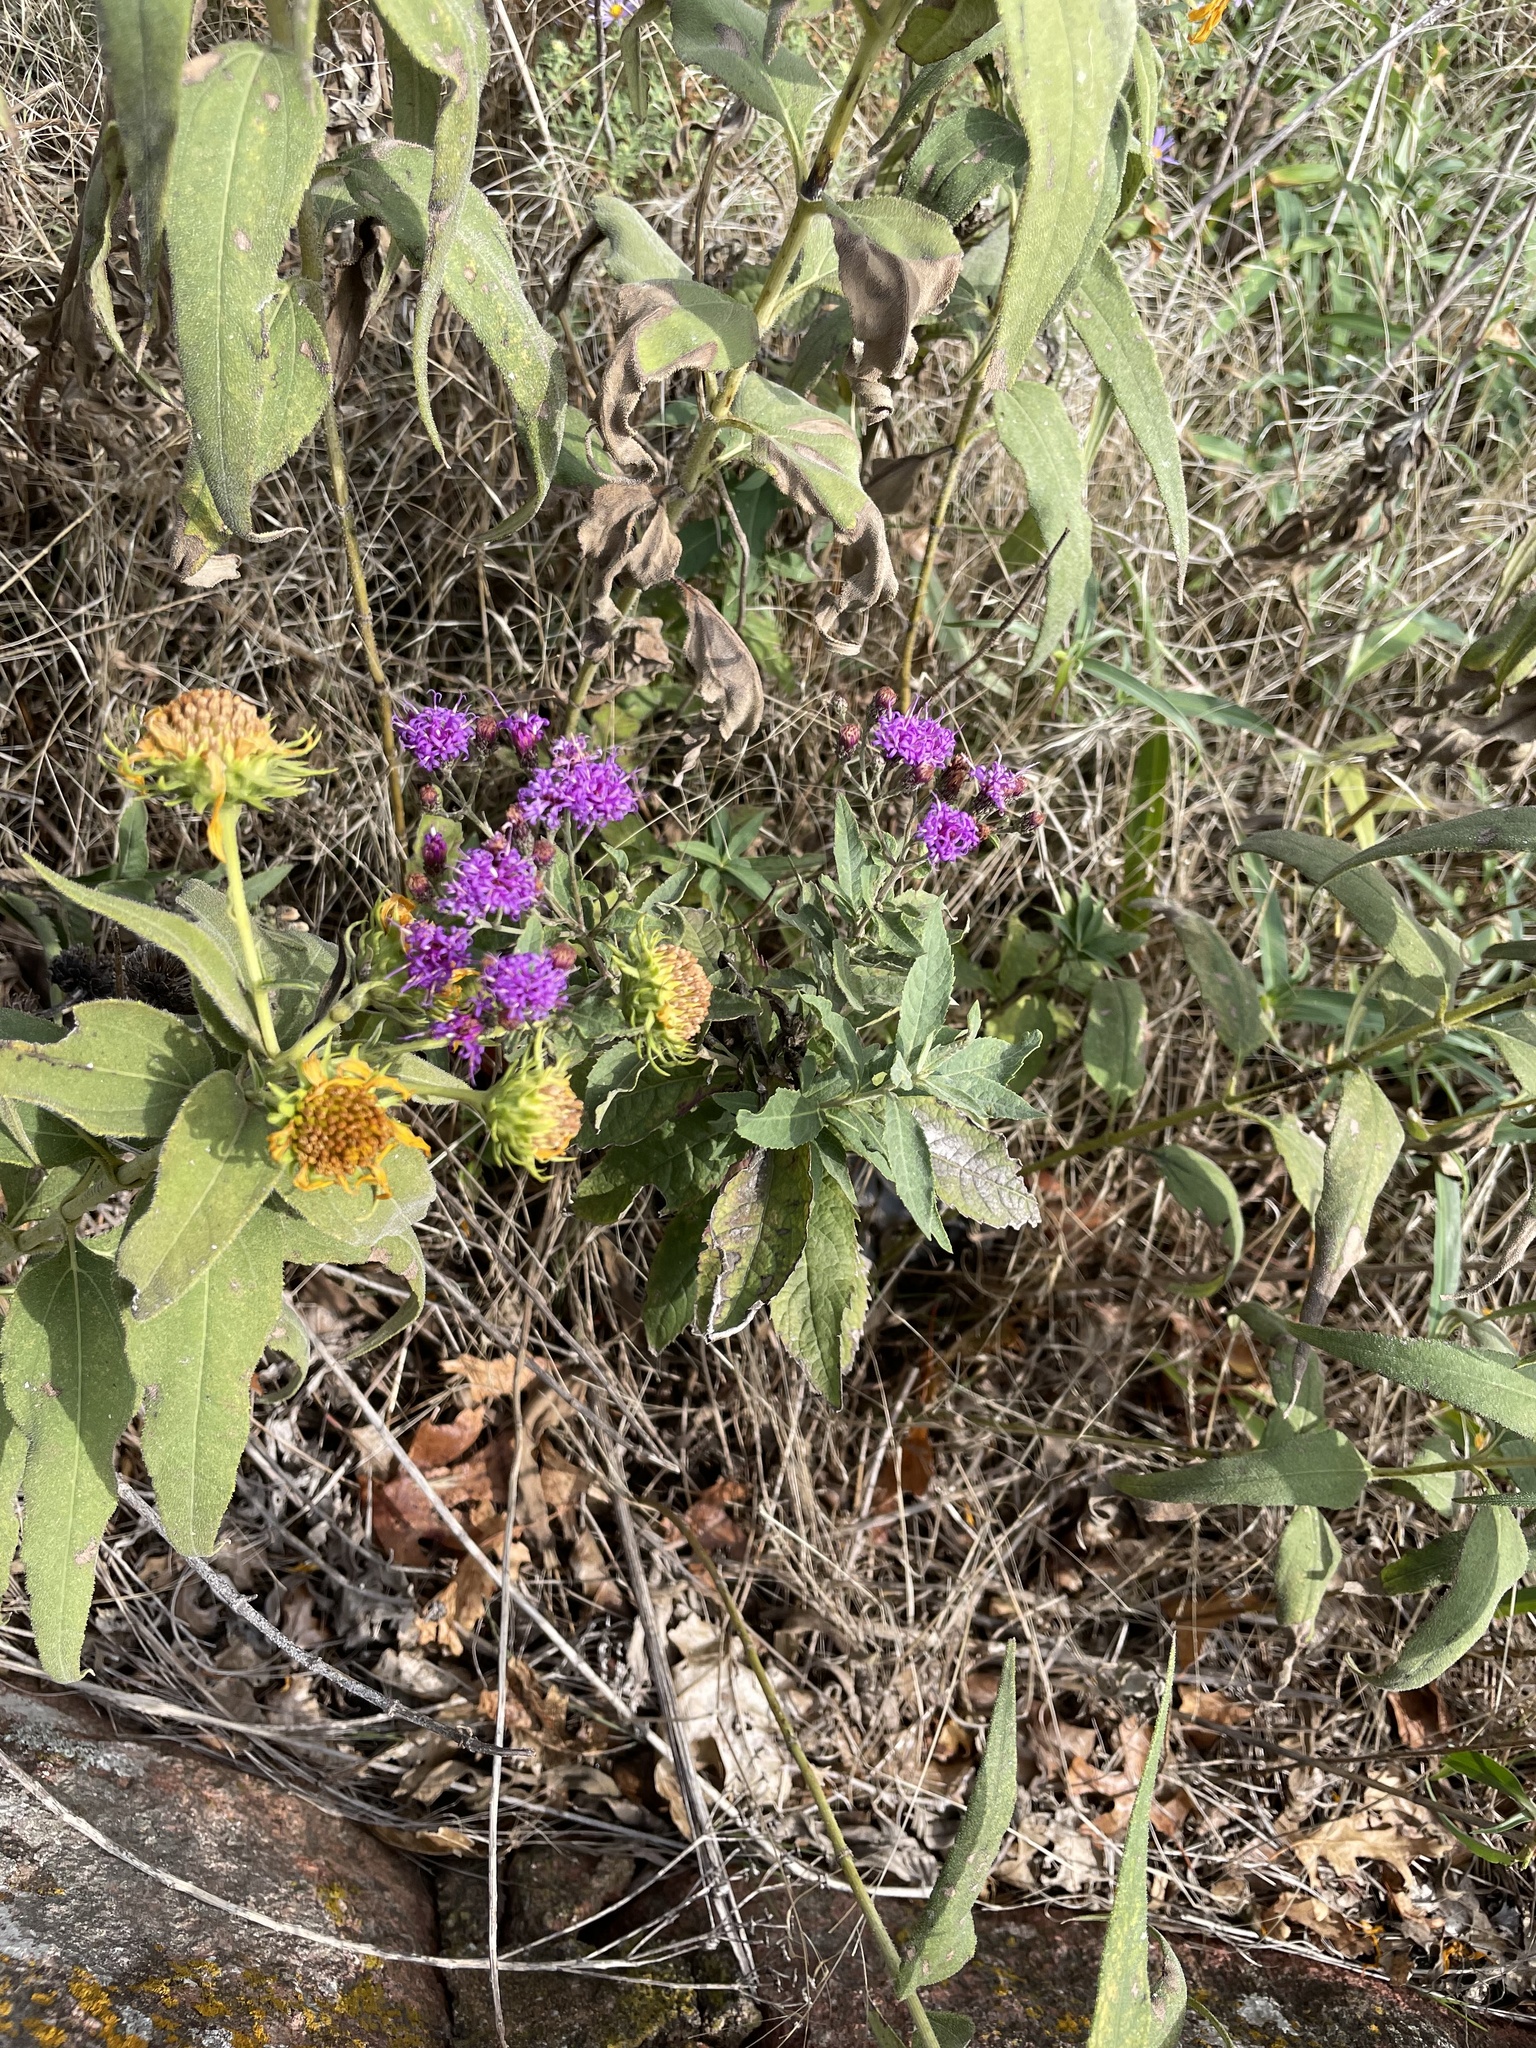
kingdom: Plantae
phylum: Tracheophyta
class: Magnoliopsida
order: Asterales
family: Asteraceae
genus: Vernonia
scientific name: Vernonia baldwinii
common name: Western ironweed
